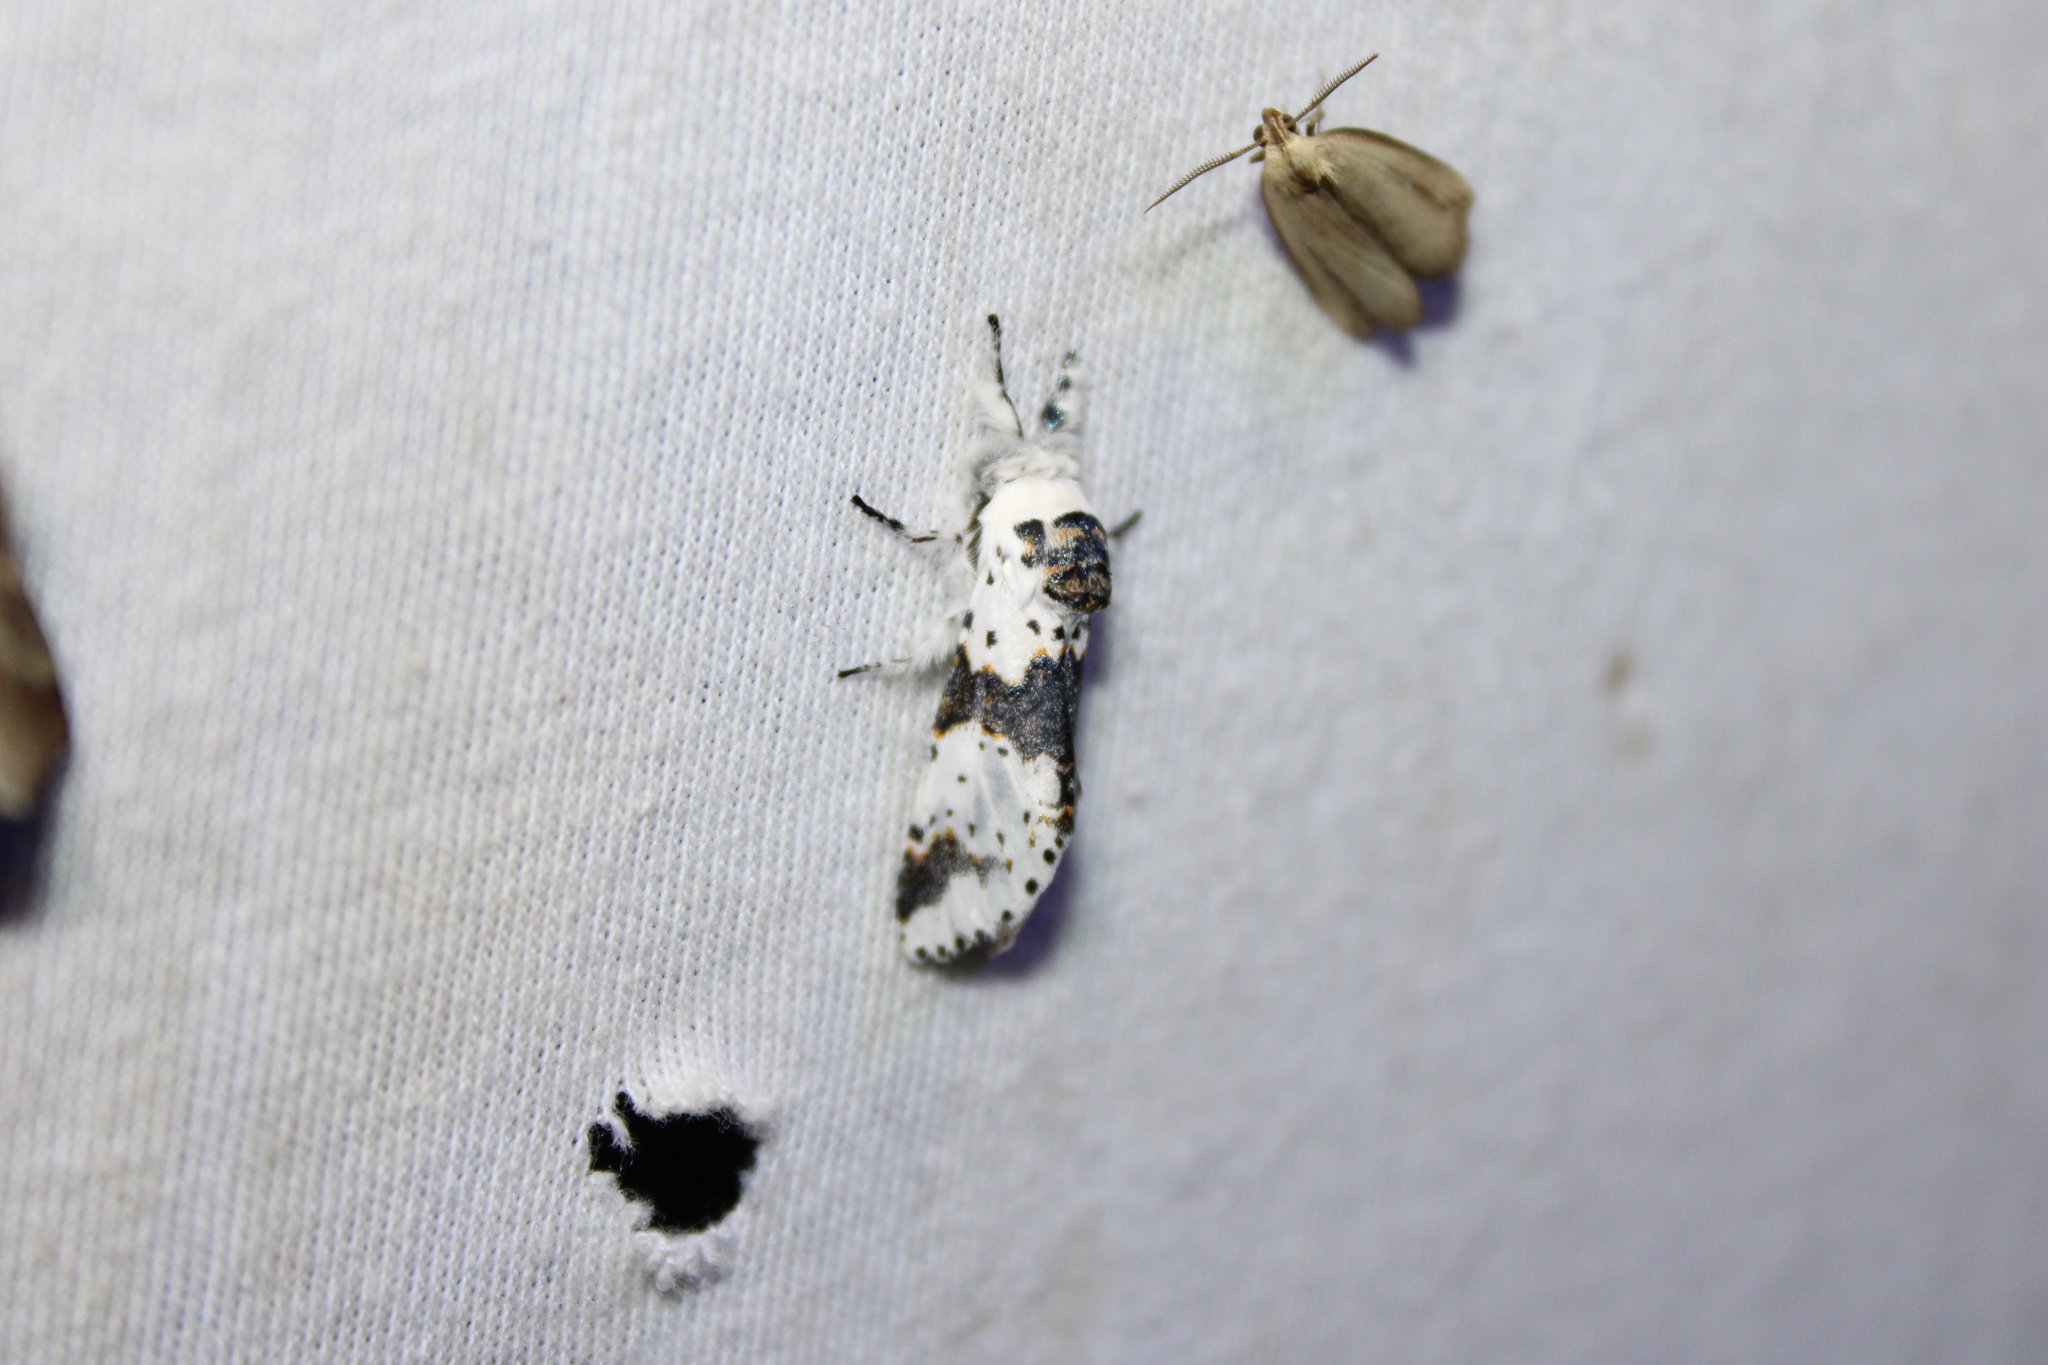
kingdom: Animalia
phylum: Arthropoda
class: Insecta
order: Lepidoptera
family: Notodontidae
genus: Furcula
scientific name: Furcula borealis
